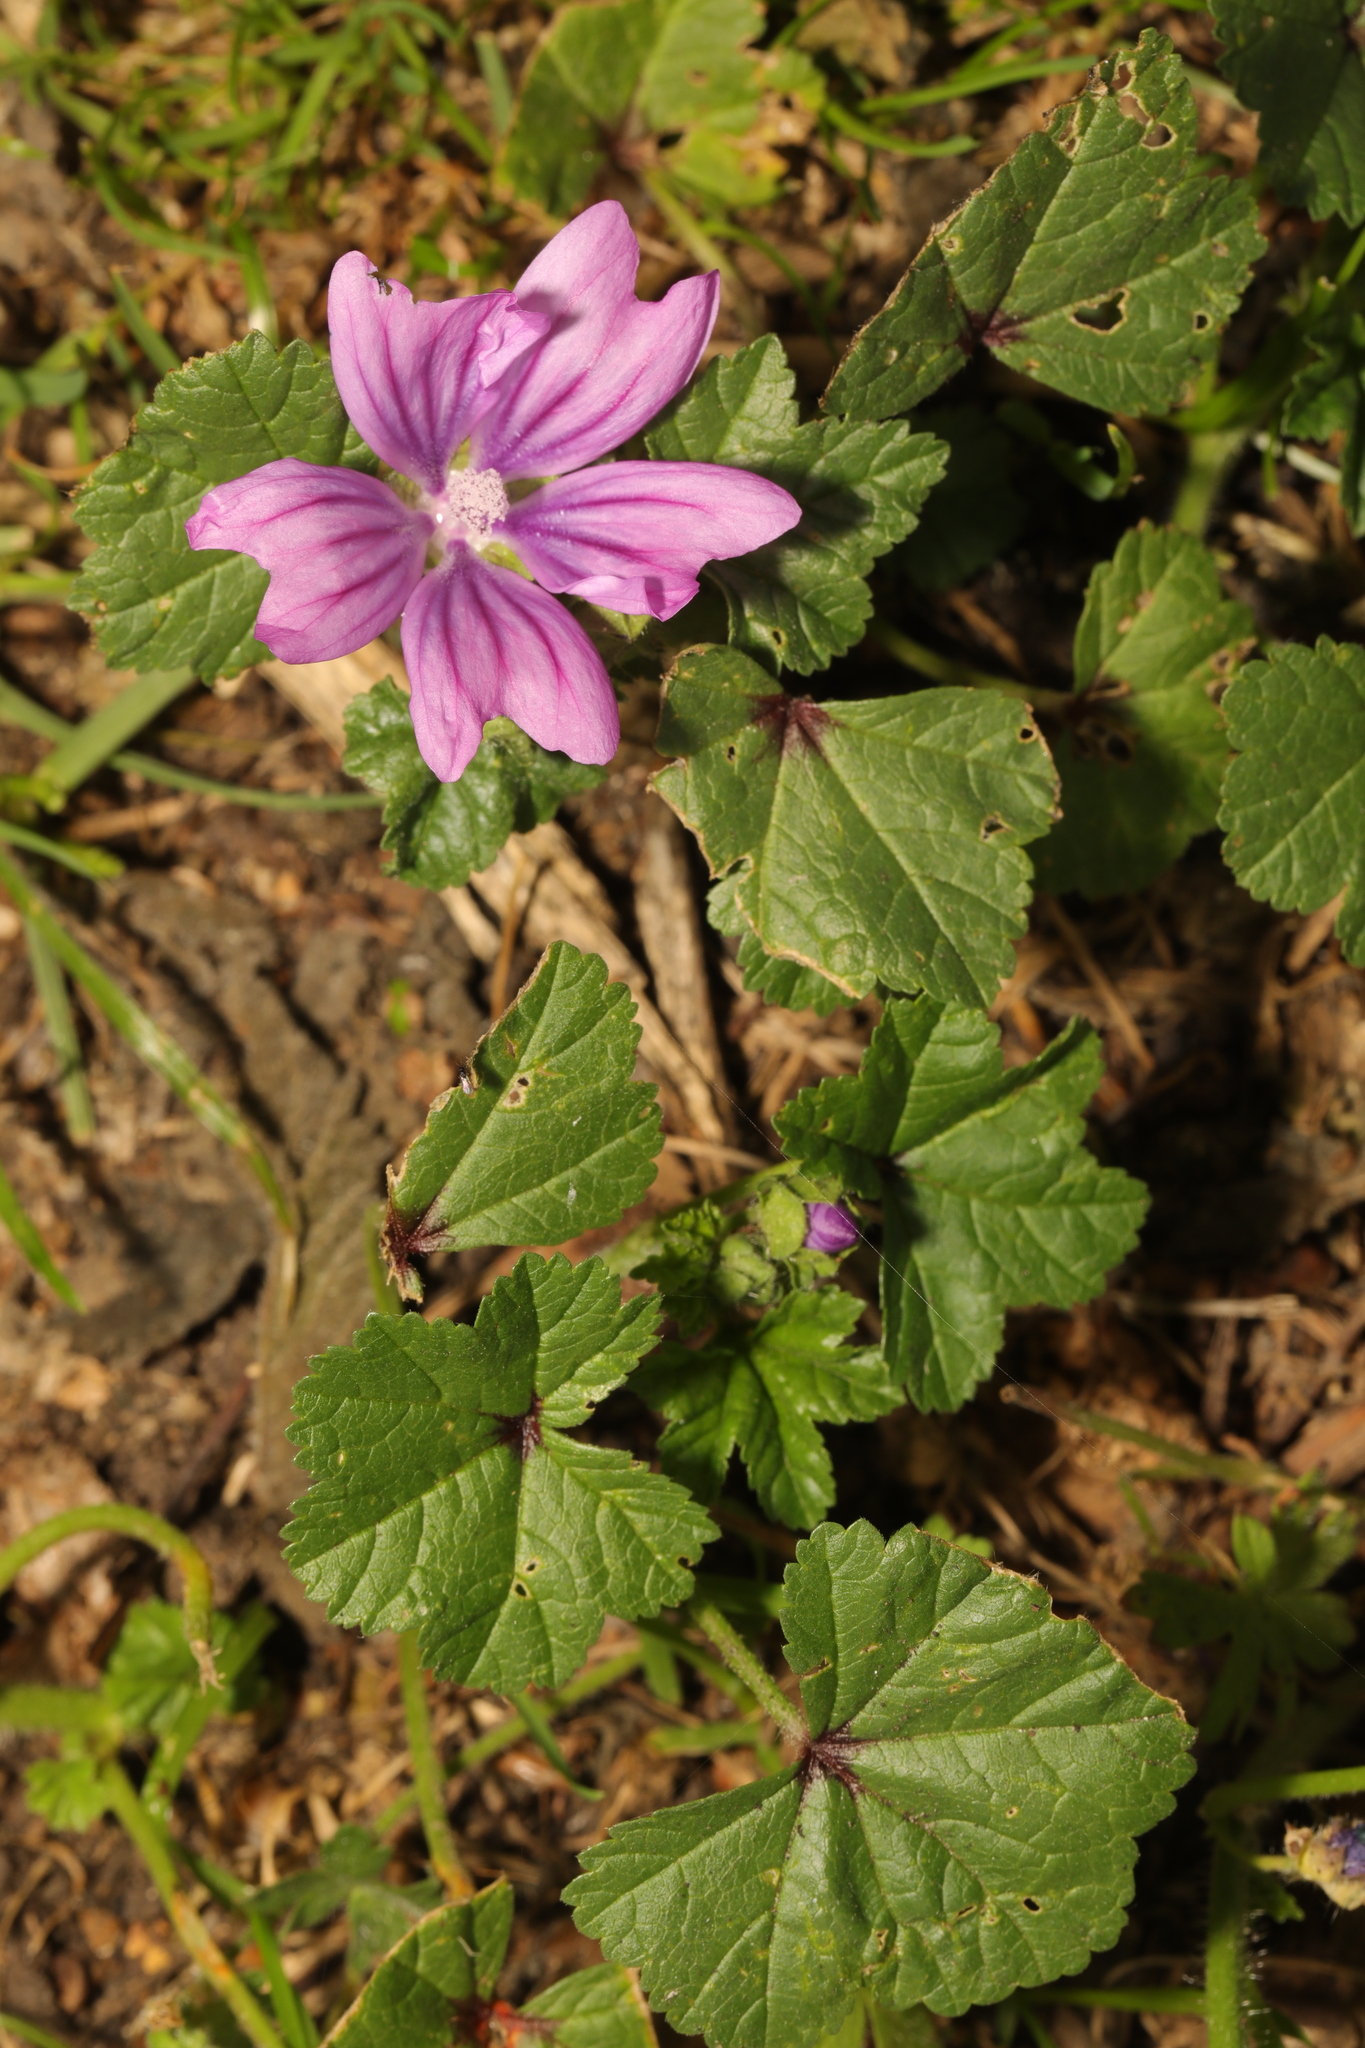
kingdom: Plantae
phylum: Tracheophyta
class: Magnoliopsida
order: Malvales
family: Malvaceae
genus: Malva
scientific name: Malva sylvestris
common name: Common mallow
